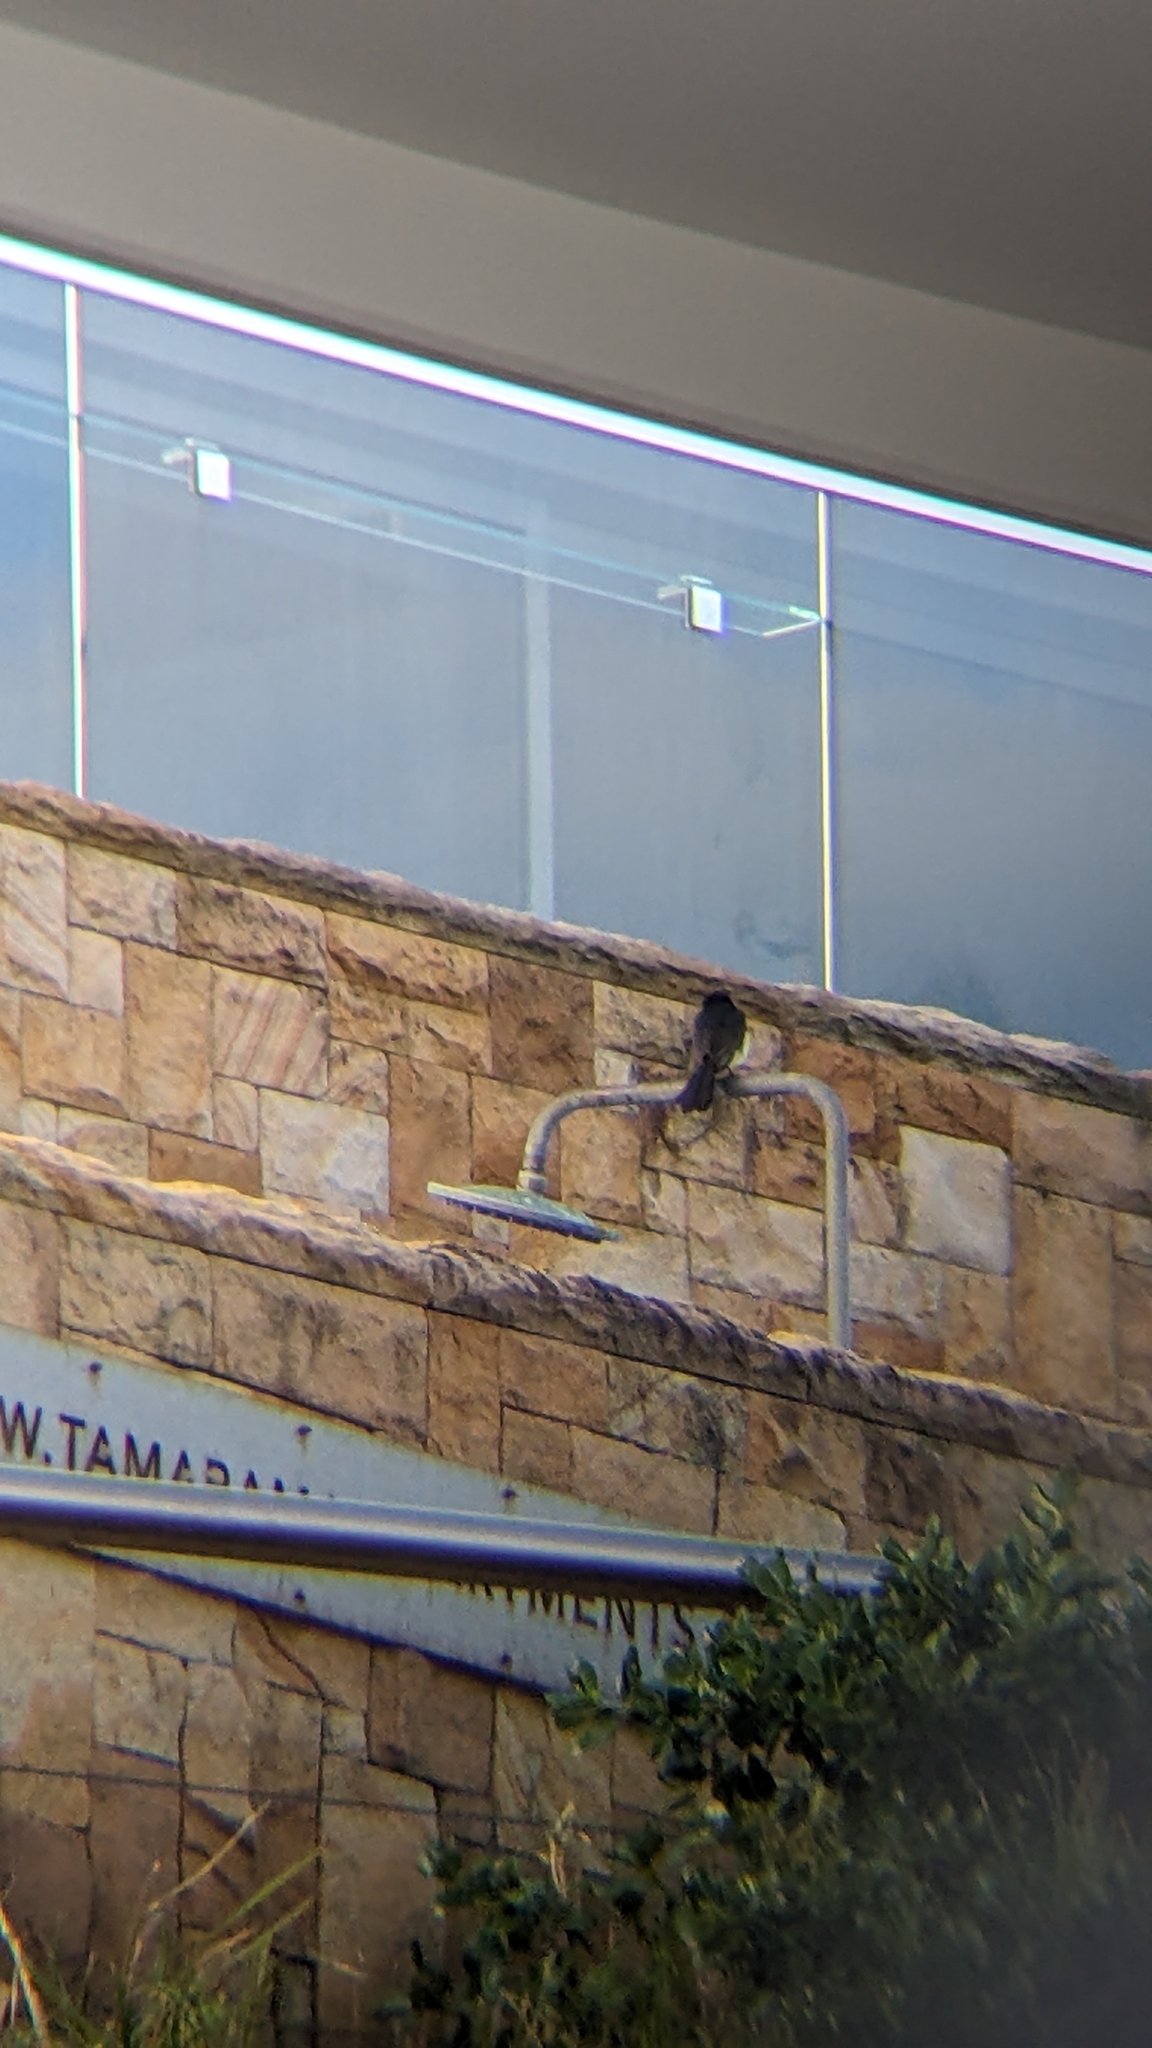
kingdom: Animalia
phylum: Chordata
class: Aves
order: Passeriformes
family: Rhipiduridae
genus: Rhipidura
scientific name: Rhipidura leucophrys
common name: Willie wagtail
